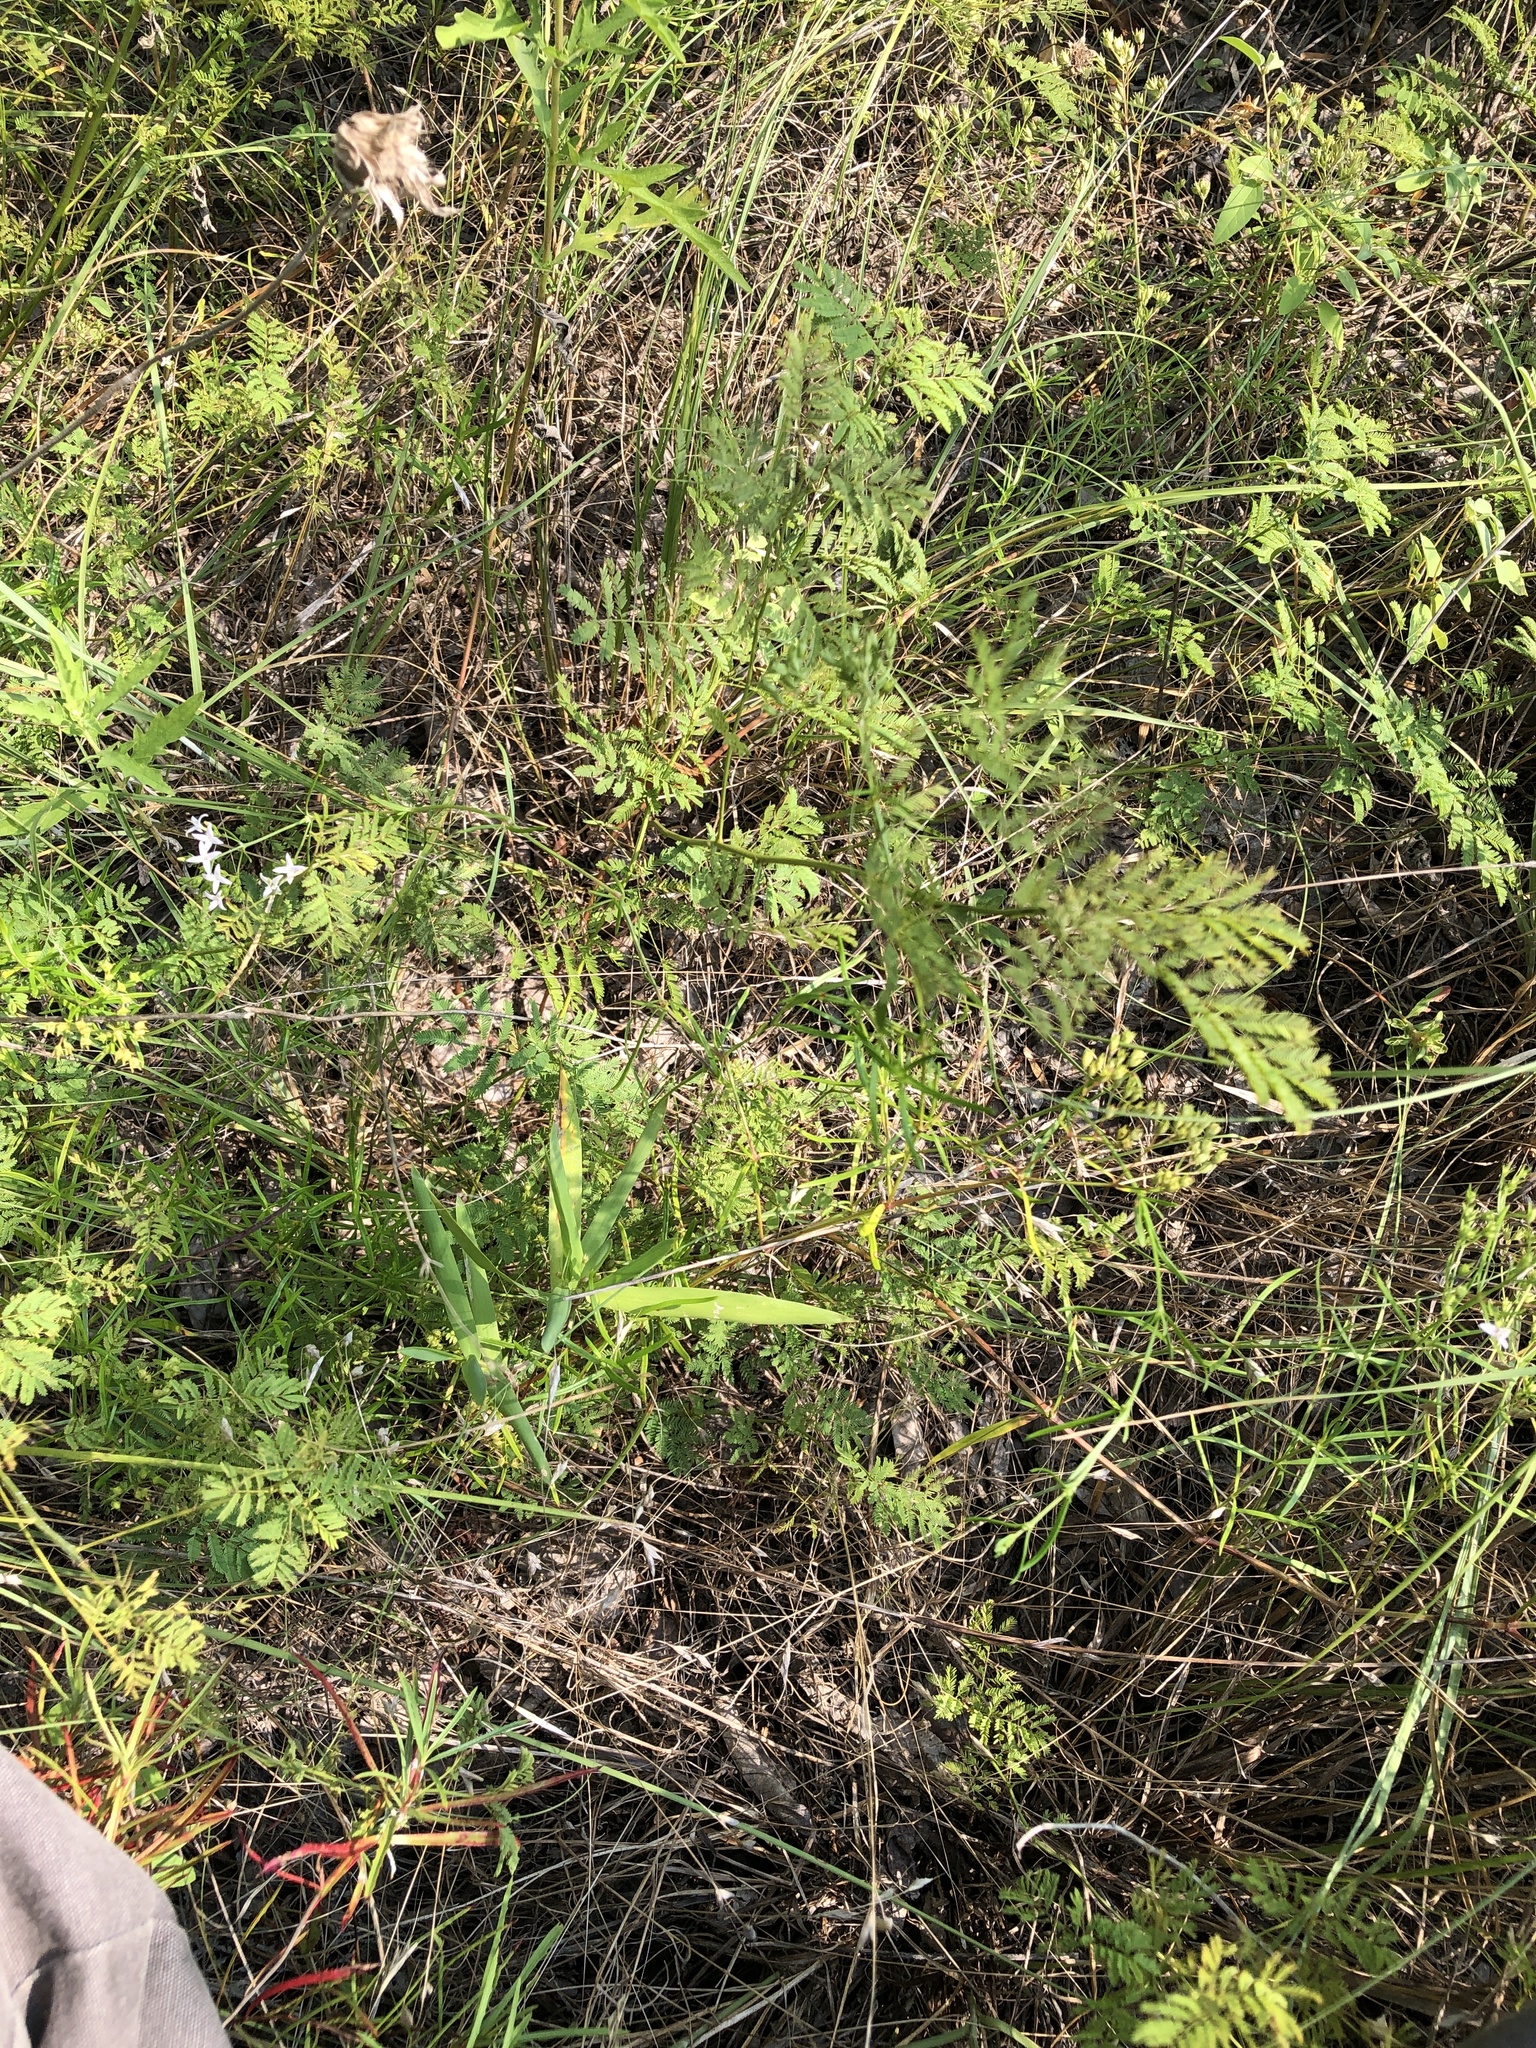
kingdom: Plantae
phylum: Tracheophyta
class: Magnoliopsida
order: Gentianales
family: Rubiaceae
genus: Stenaria
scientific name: Stenaria nigricans
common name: Diamondflowers
